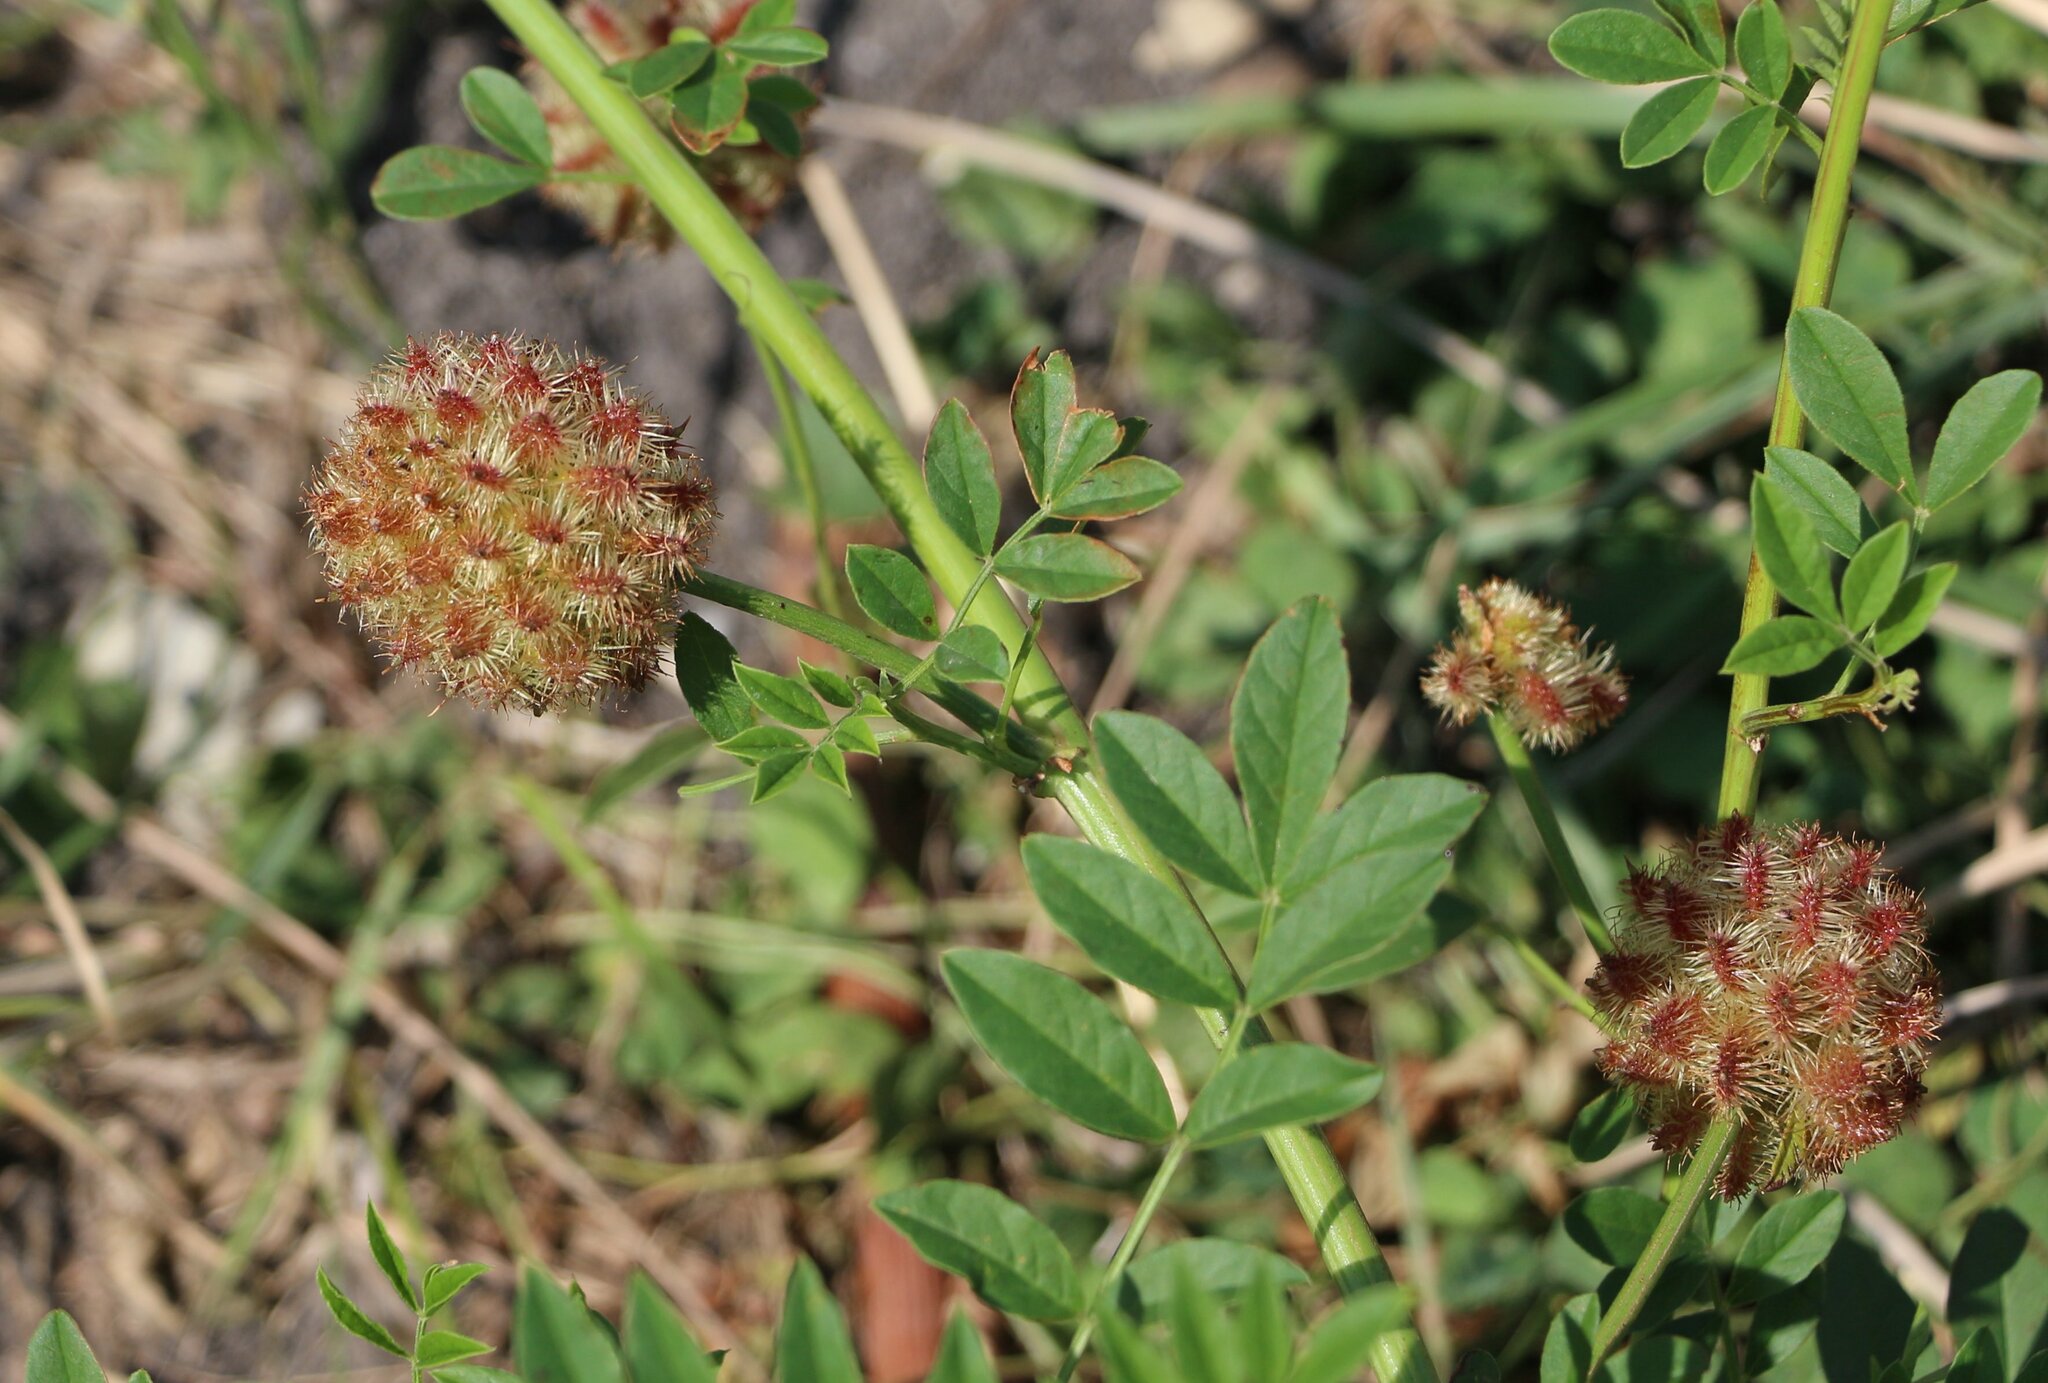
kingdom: Plantae
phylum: Tracheophyta
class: Magnoliopsida
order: Fabales
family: Fabaceae
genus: Glycyrrhiza
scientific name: Glycyrrhiza echinata
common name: German liquorice
